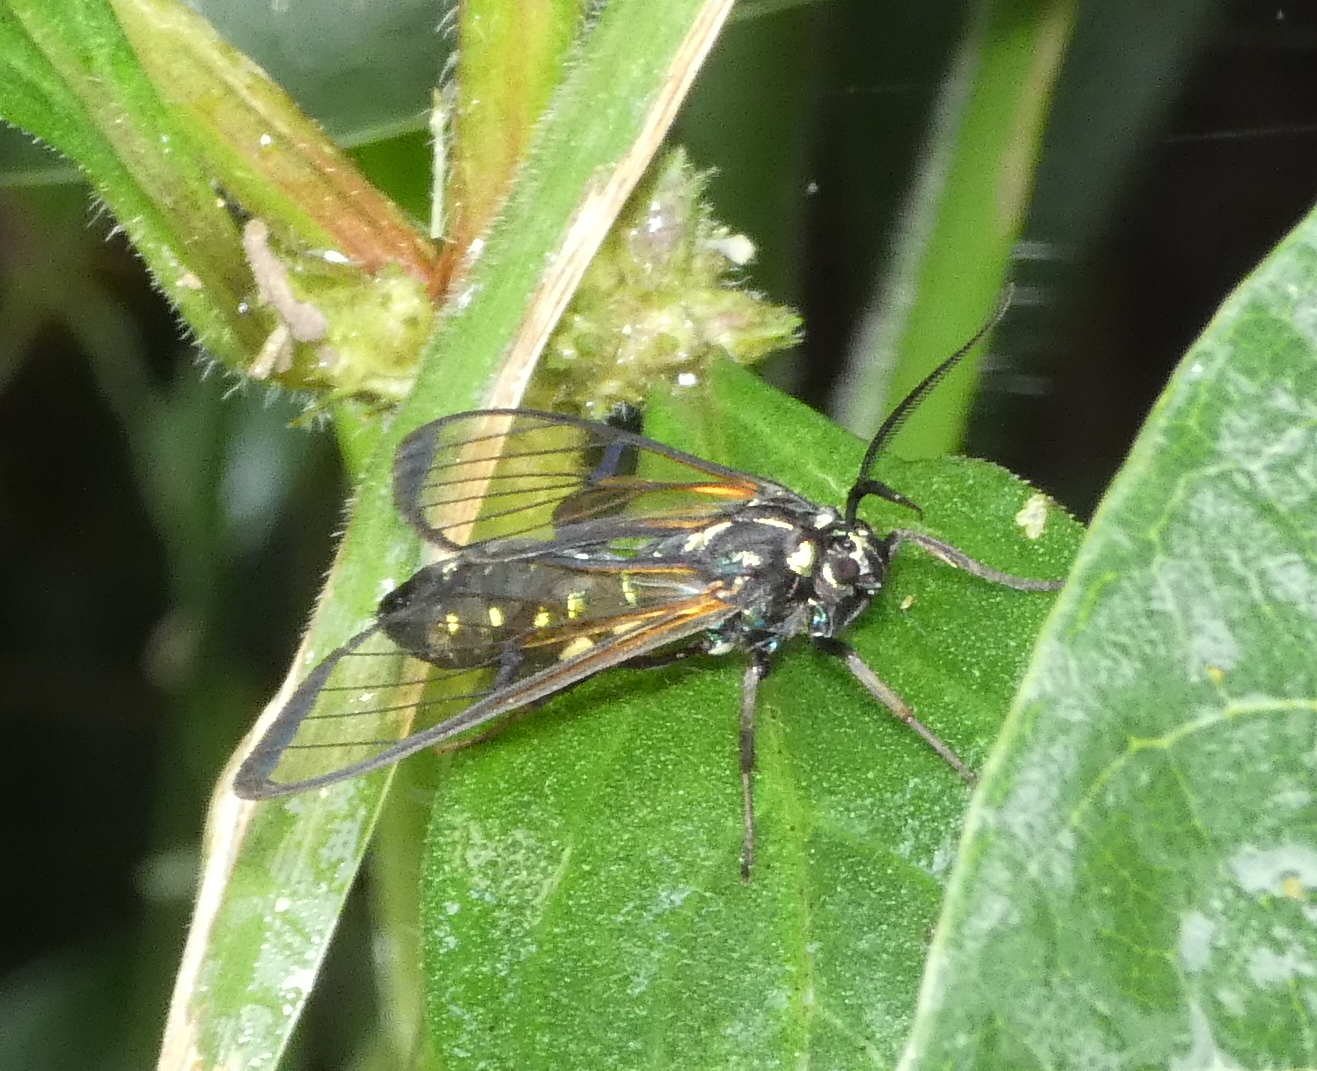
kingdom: Animalia
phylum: Arthropoda
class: Insecta
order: Lepidoptera
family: Erebidae
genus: Trichura
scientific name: Trichura
